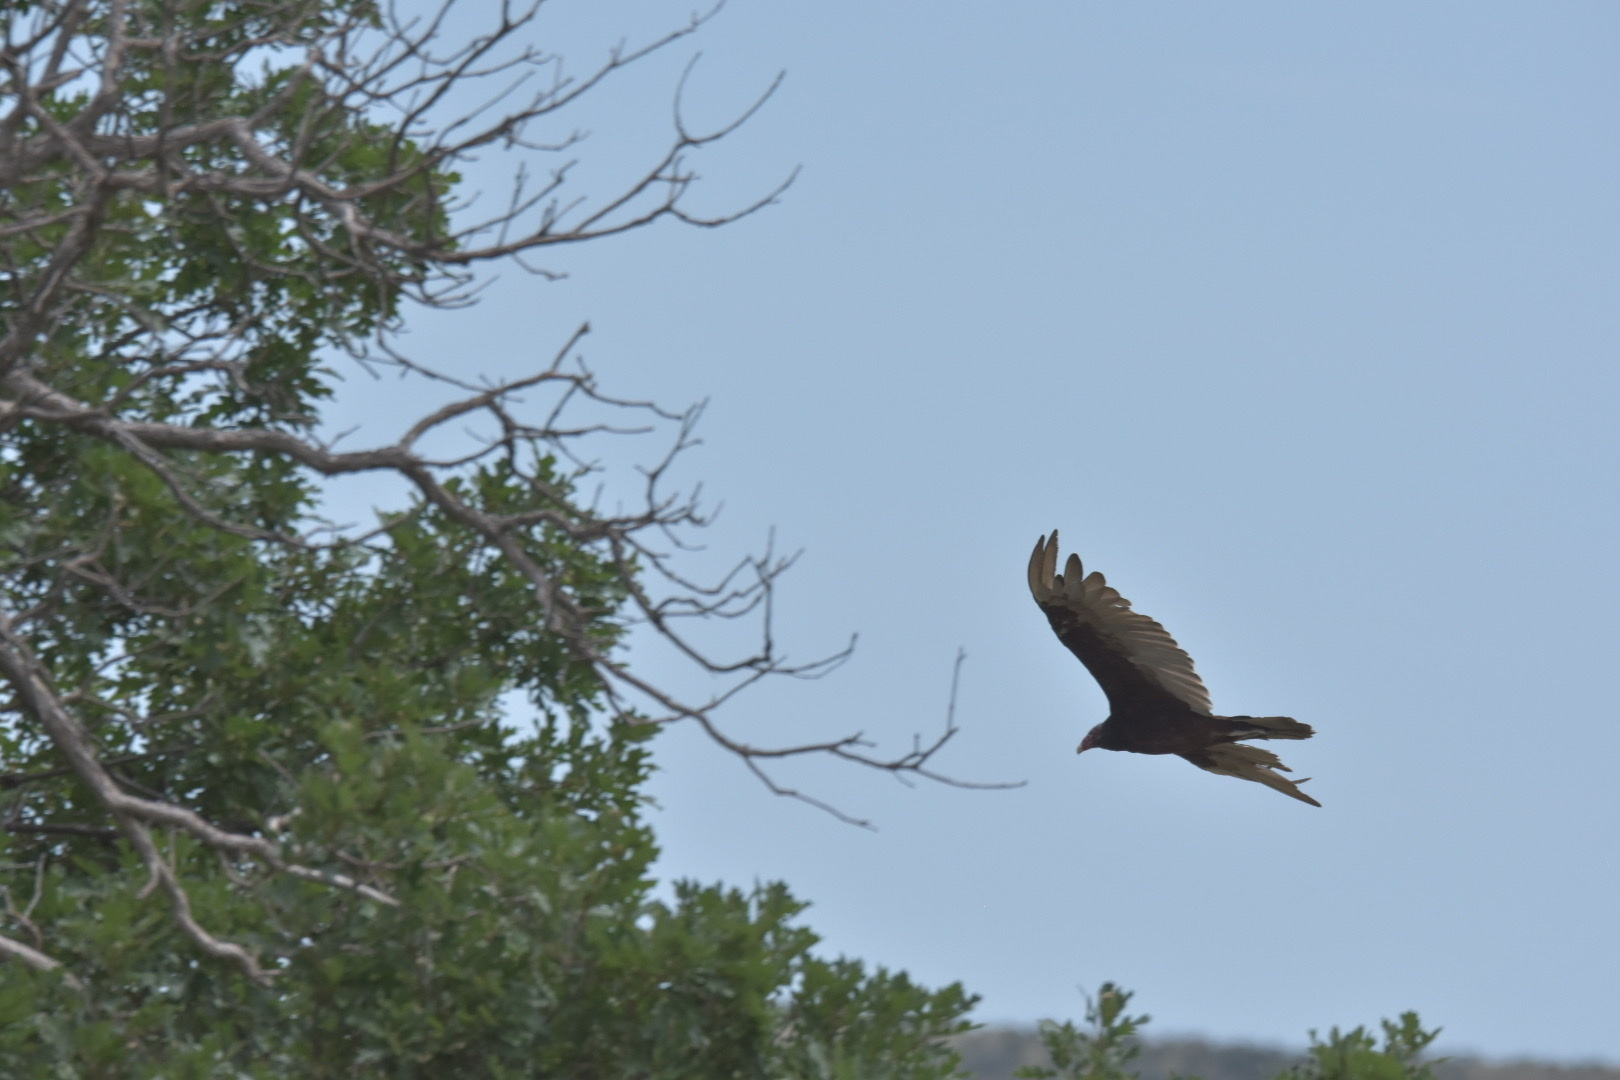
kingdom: Animalia
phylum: Chordata
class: Aves
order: Accipitriformes
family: Cathartidae
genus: Cathartes
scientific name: Cathartes aura
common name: Turkey vulture
